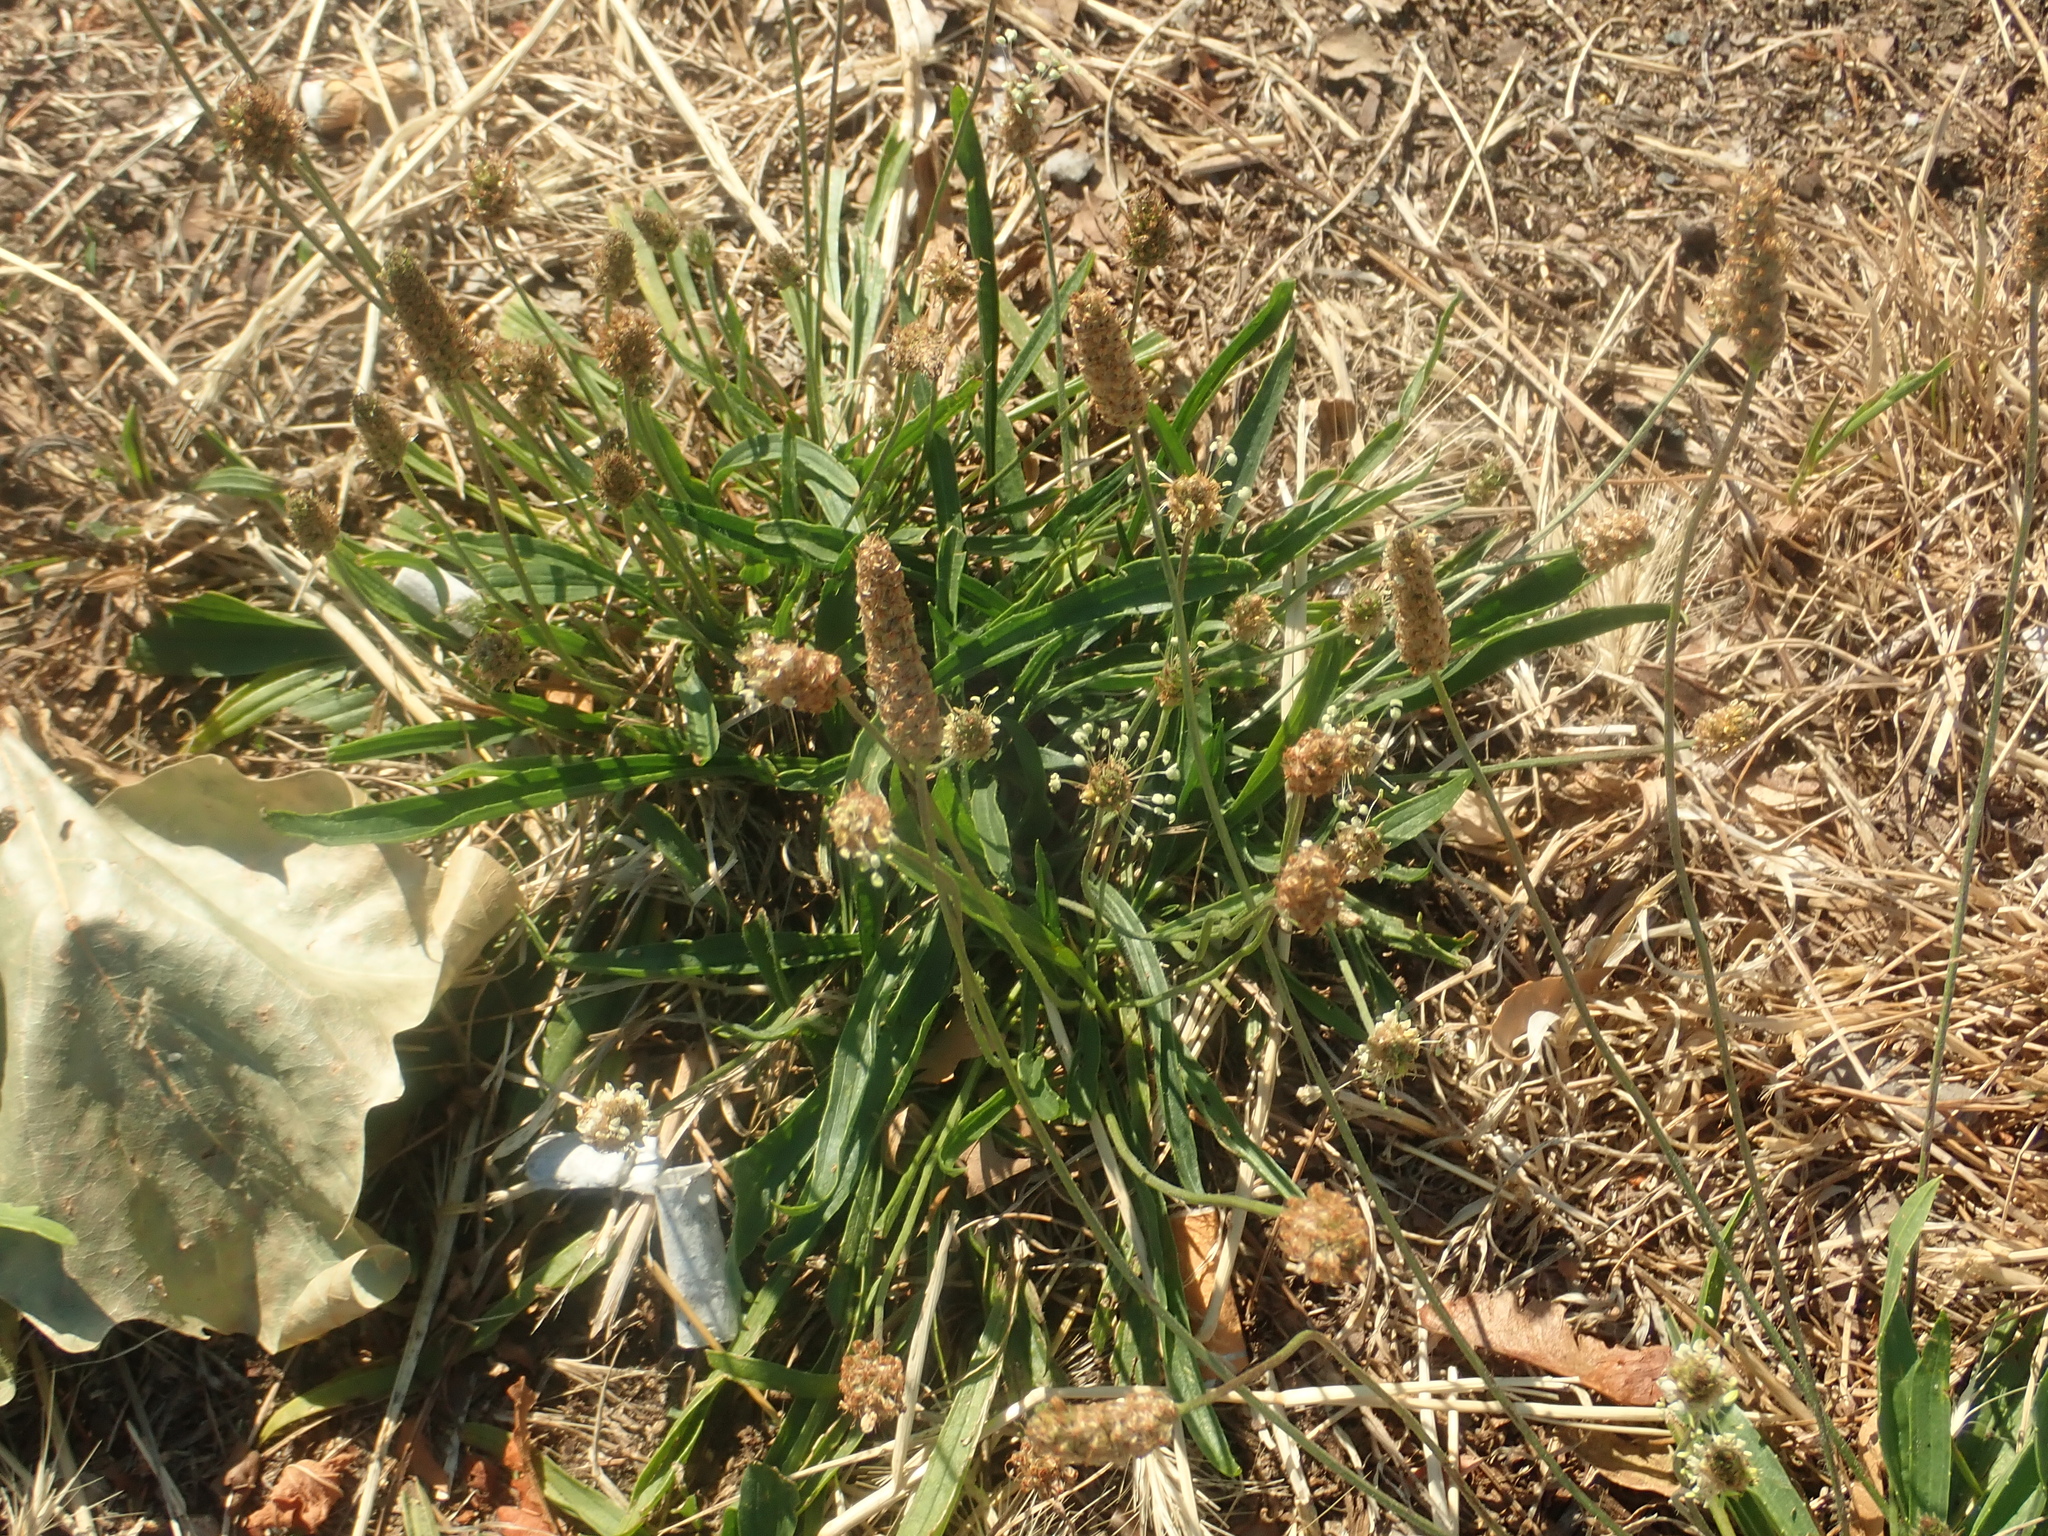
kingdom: Plantae
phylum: Tracheophyta
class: Magnoliopsida
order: Lamiales
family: Plantaginaceae
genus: Plantago
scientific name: Plantago lanceolata
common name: Ribwort plantain
